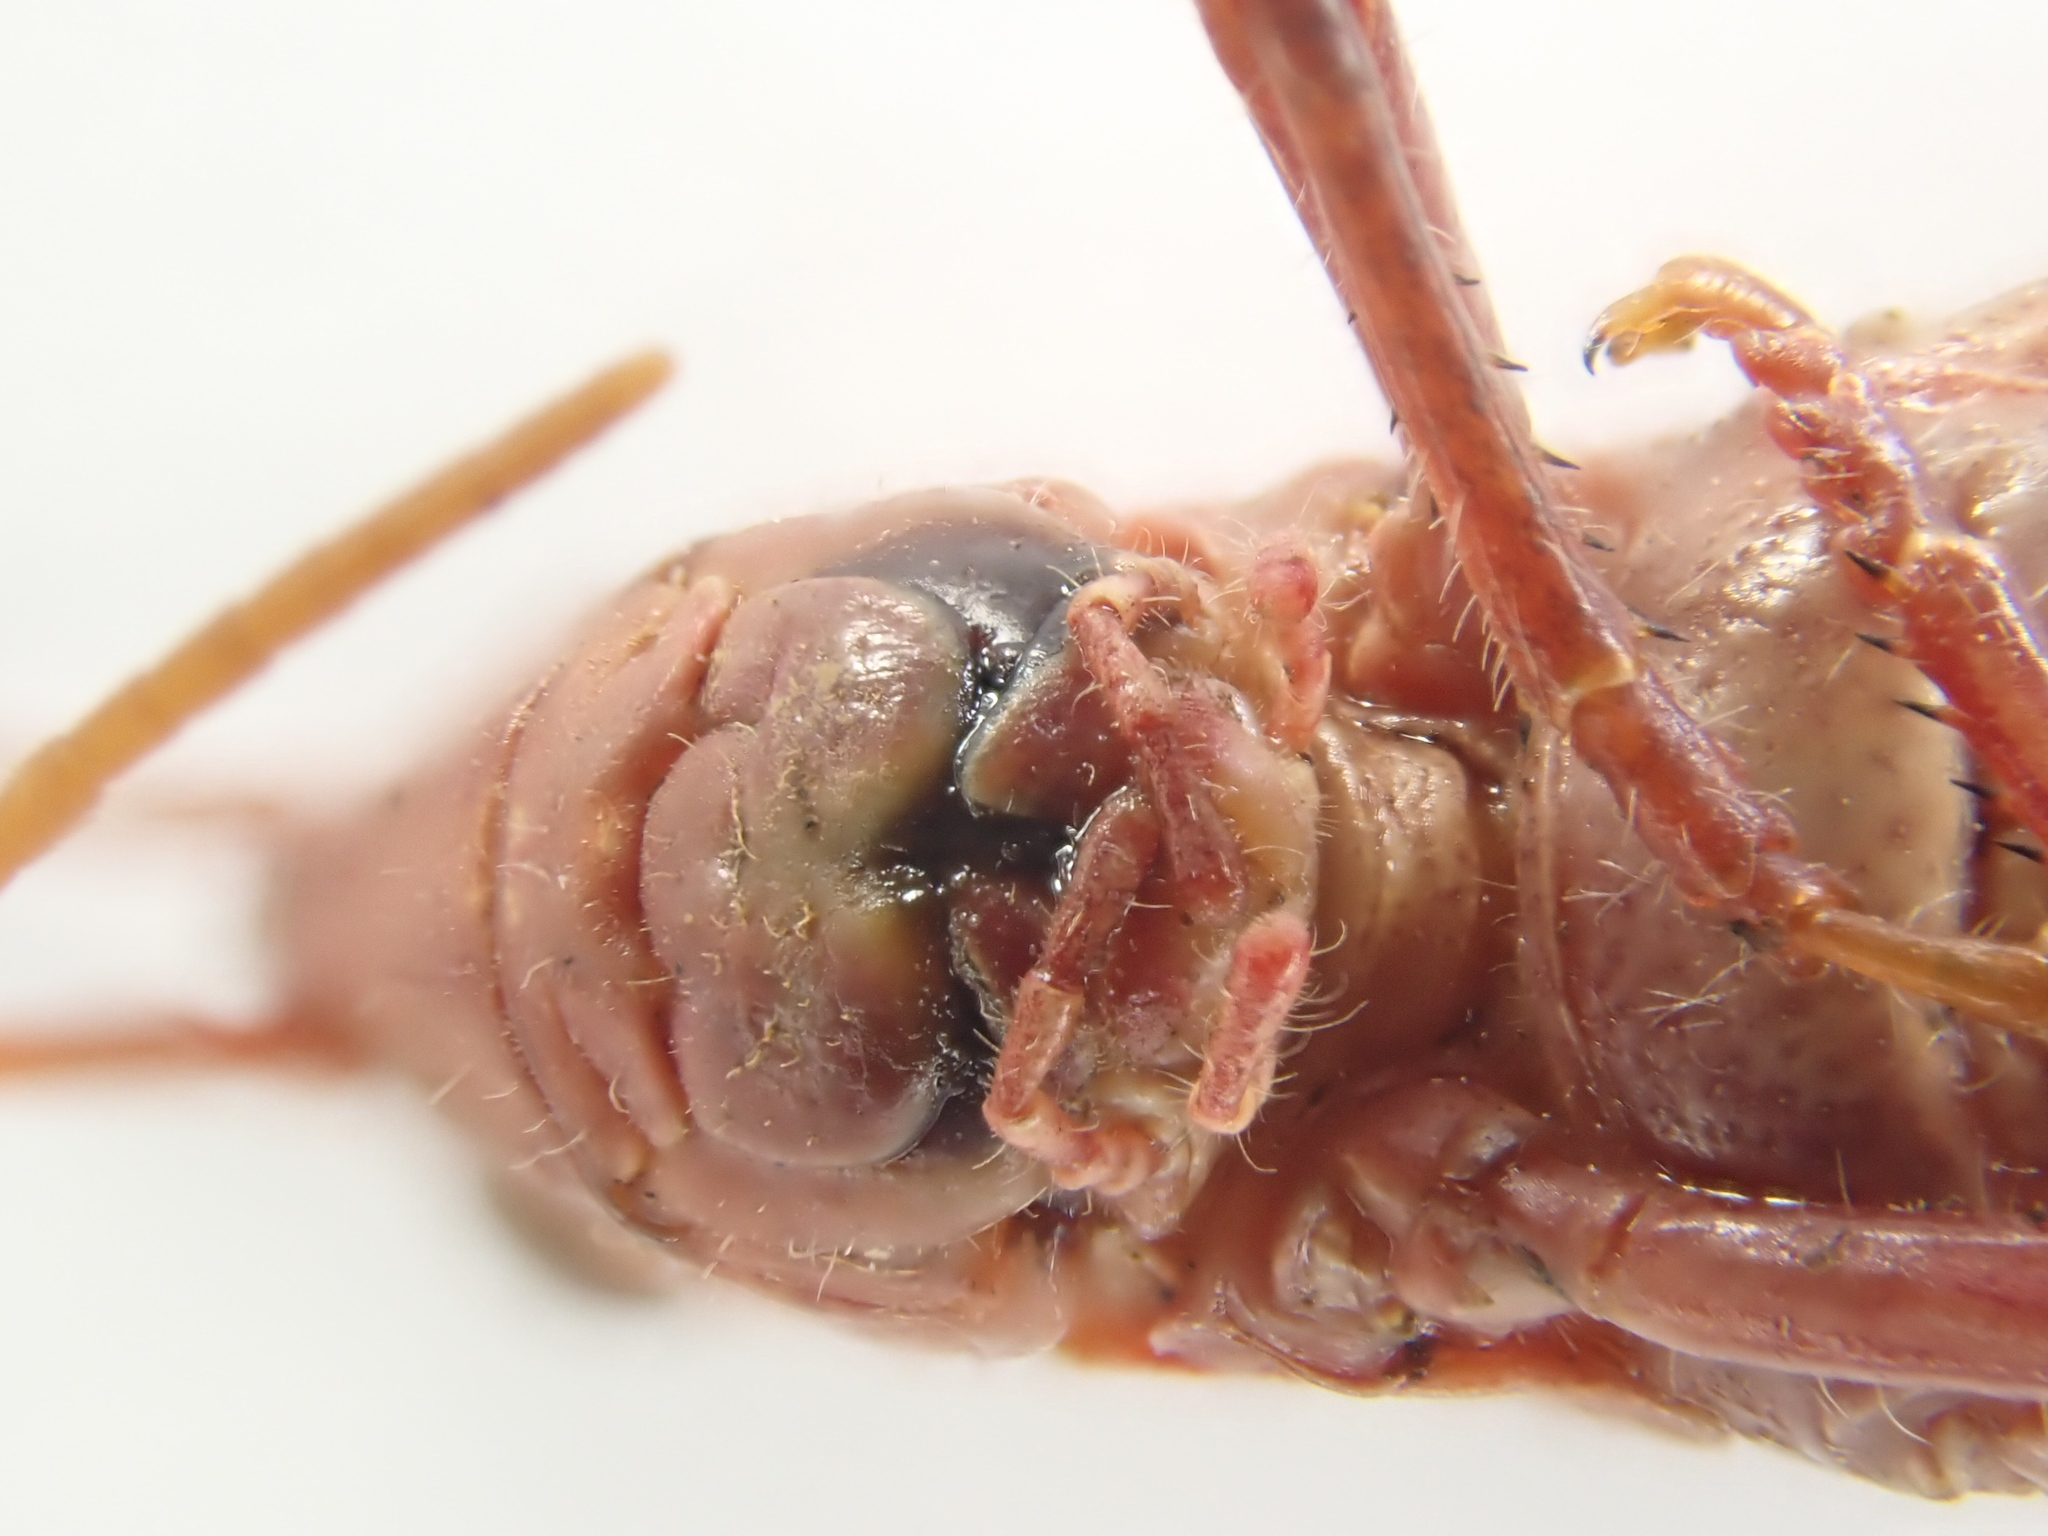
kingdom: Animalia
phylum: Arthropoda
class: Insecta
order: Orthoptera
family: Acrididae
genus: Chorthippus
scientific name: Chorthippus dorsatus
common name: Steppe grasshopper
